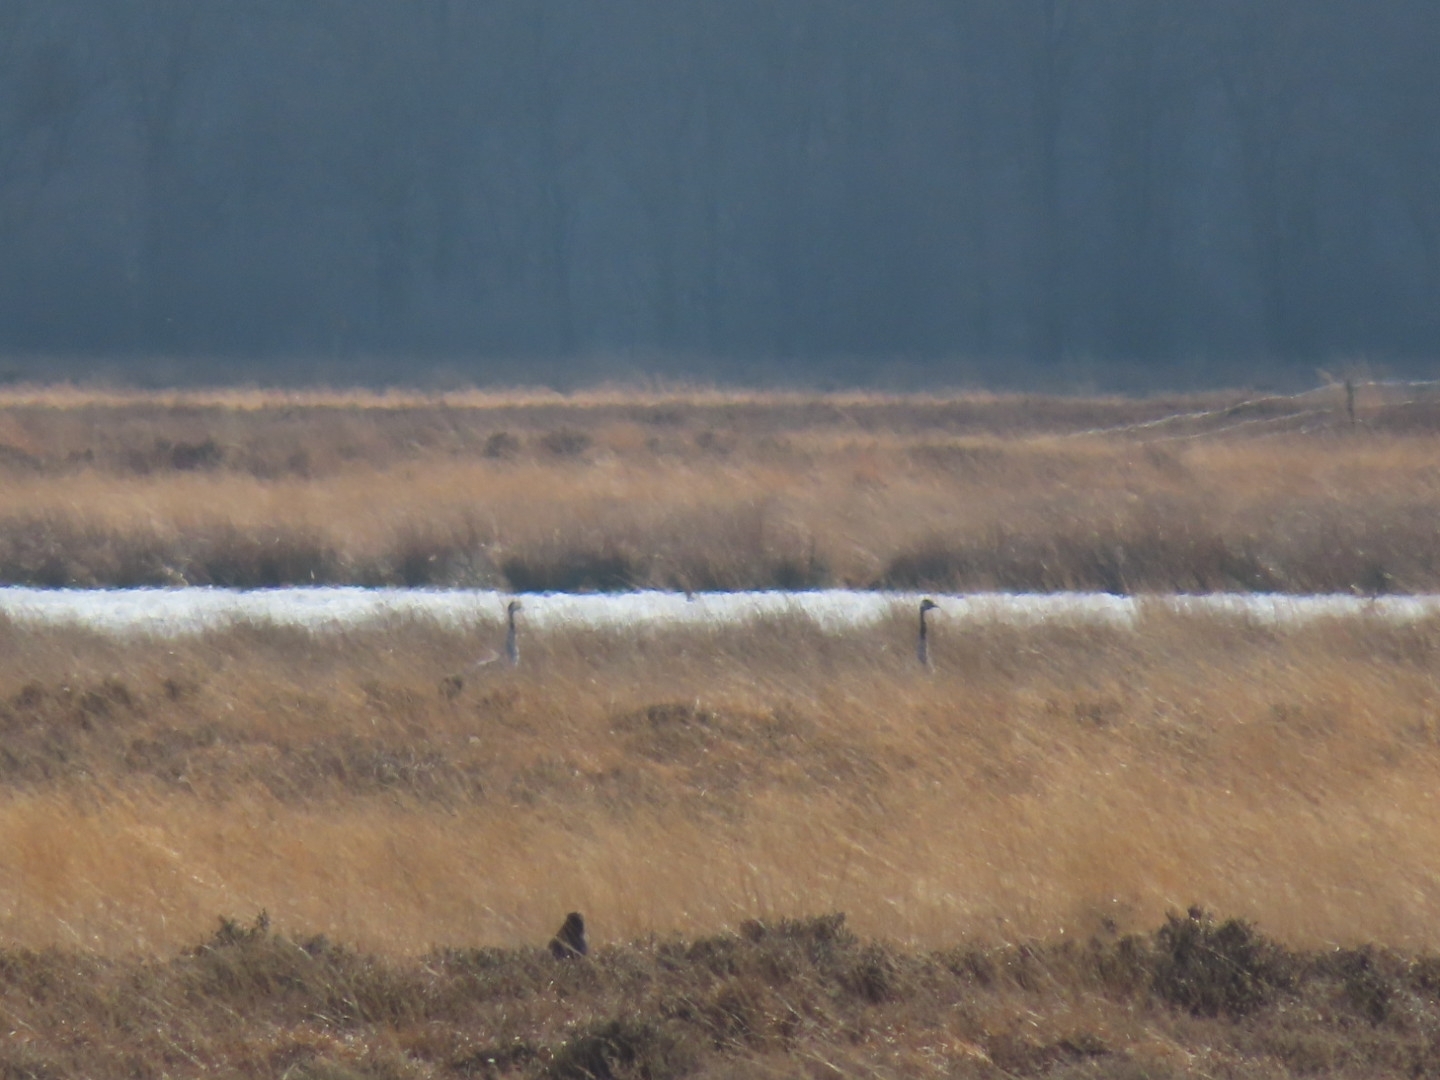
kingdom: Animalia
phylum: Chordata
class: Aves
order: Gruiformes
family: Gruidae
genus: Grus
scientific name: Grus grus
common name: Common crane
